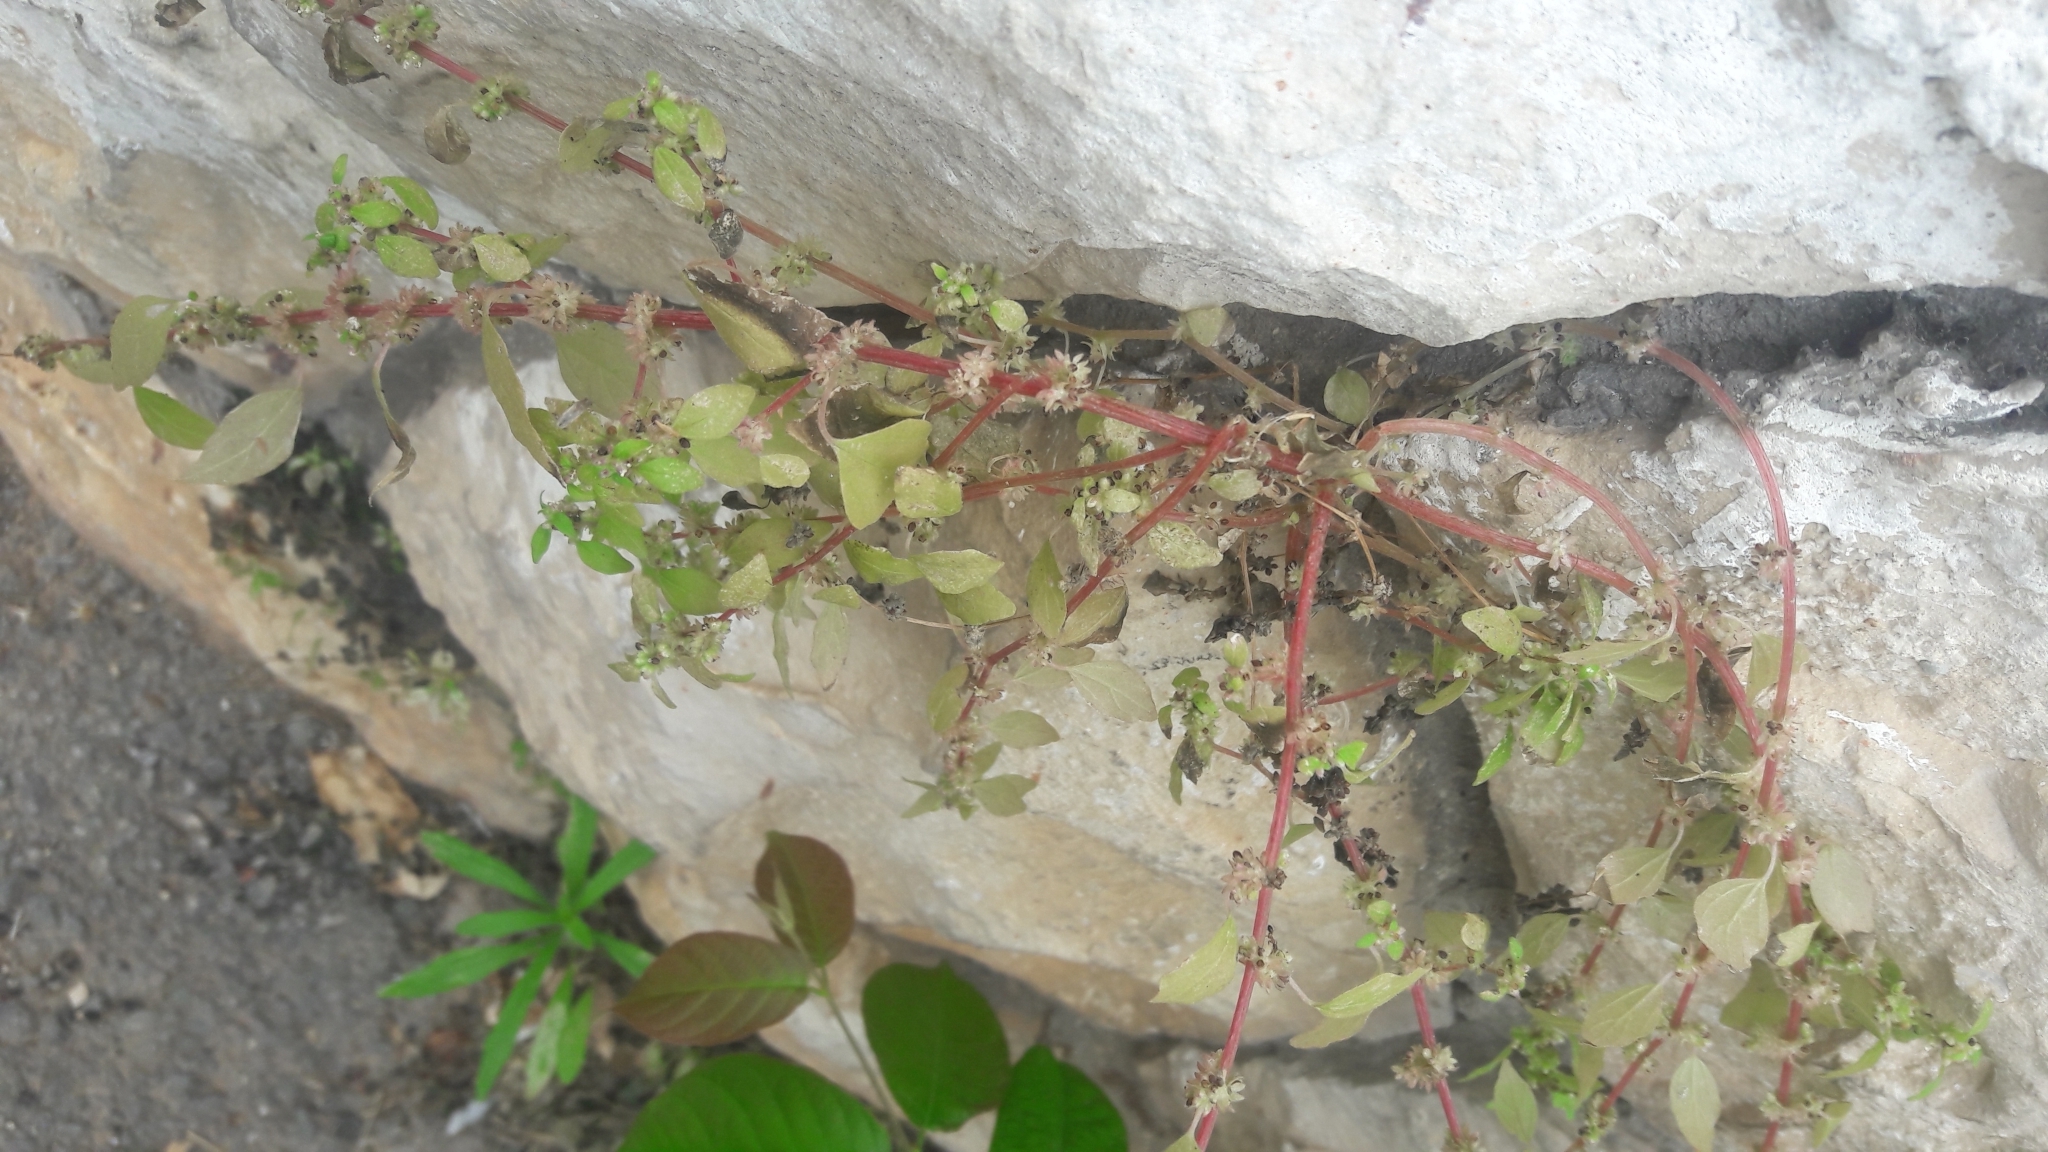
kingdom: Plantae
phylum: Tracheophyta
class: Magnoliopsida
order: Rosales
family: Urticaceae
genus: Parietaria
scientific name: Parietaria judaica
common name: Pellitory-of-the-wall
